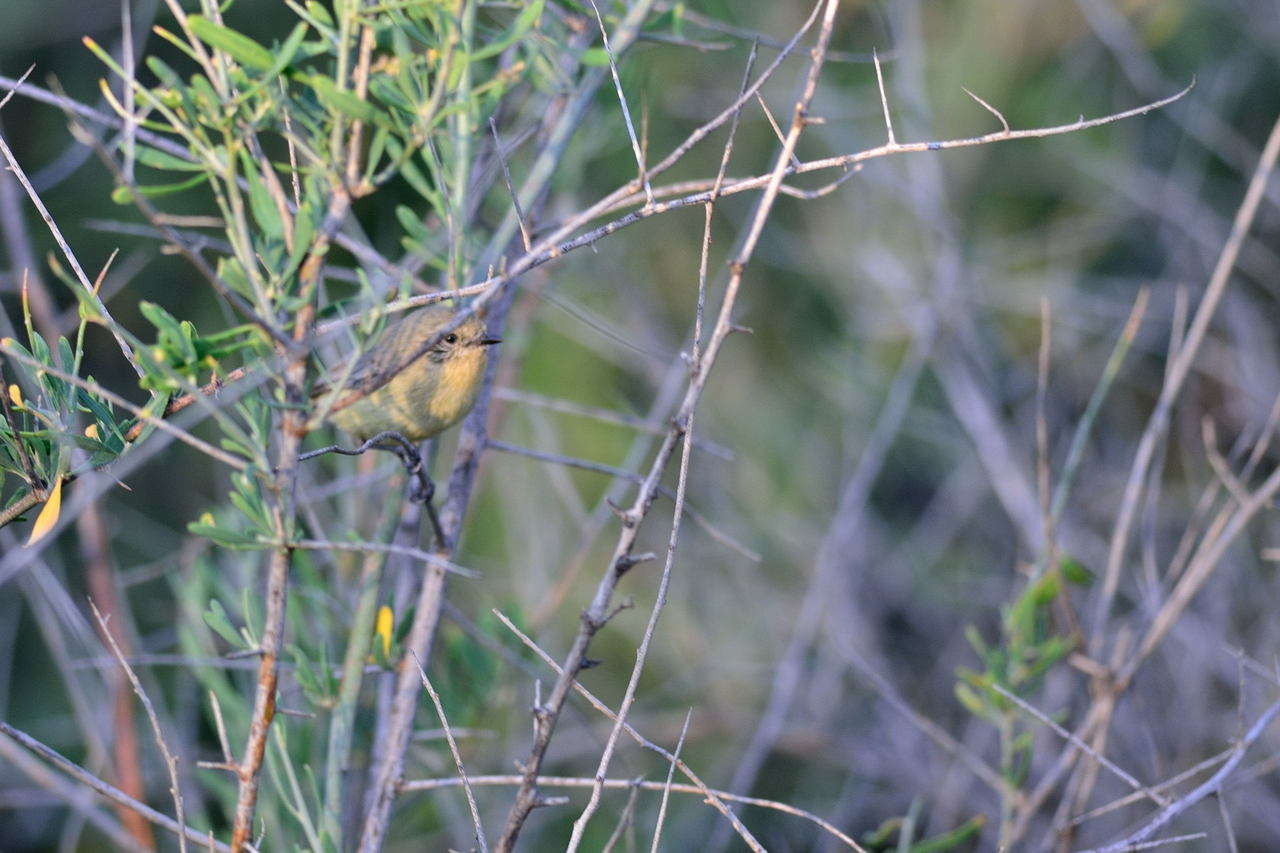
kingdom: Animalia
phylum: Chordata
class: Aves
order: Passeriformes
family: Acanthizidae
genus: Acanthiza
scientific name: Acanthiza nana
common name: Yellow thornbill
